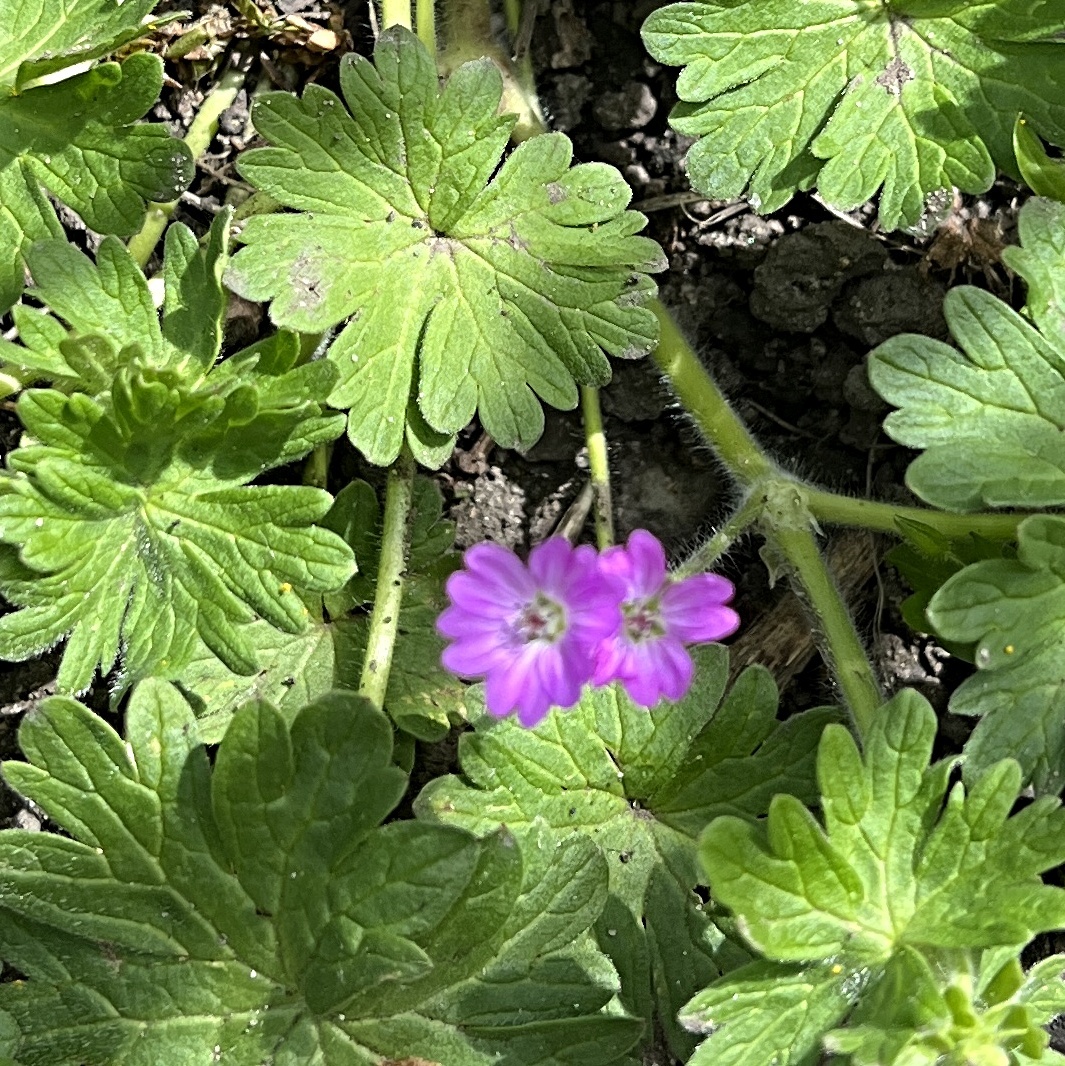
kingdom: Plantae
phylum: Tracheophyta
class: Magnoliopsida
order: Geraniales
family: Geraniaceae
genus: Geranium
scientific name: Geranium molle
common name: Dove's-foot crane's-bill
